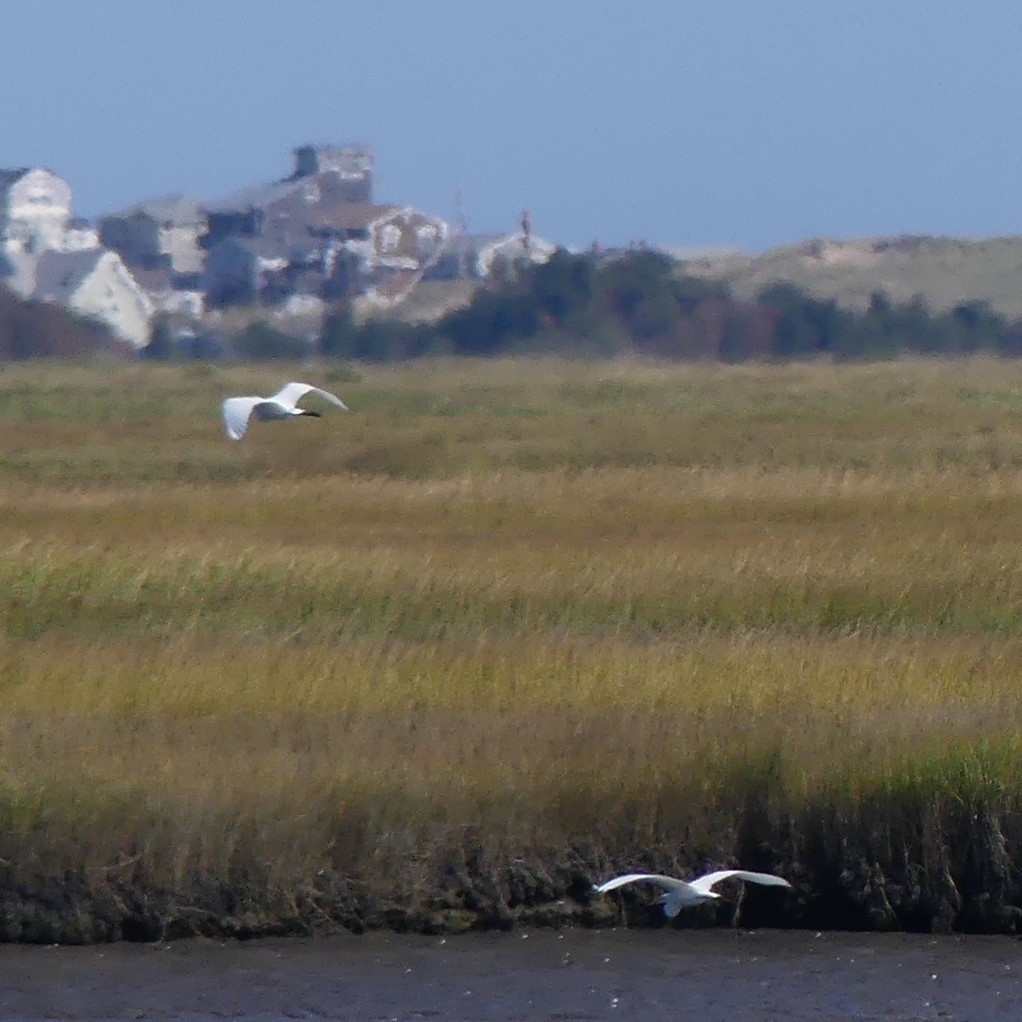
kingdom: Animalia
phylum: Chordata
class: Aves
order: Pelecaniformes
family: Ardeidae
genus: Ardea
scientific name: Ardea alba
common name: Great egret
